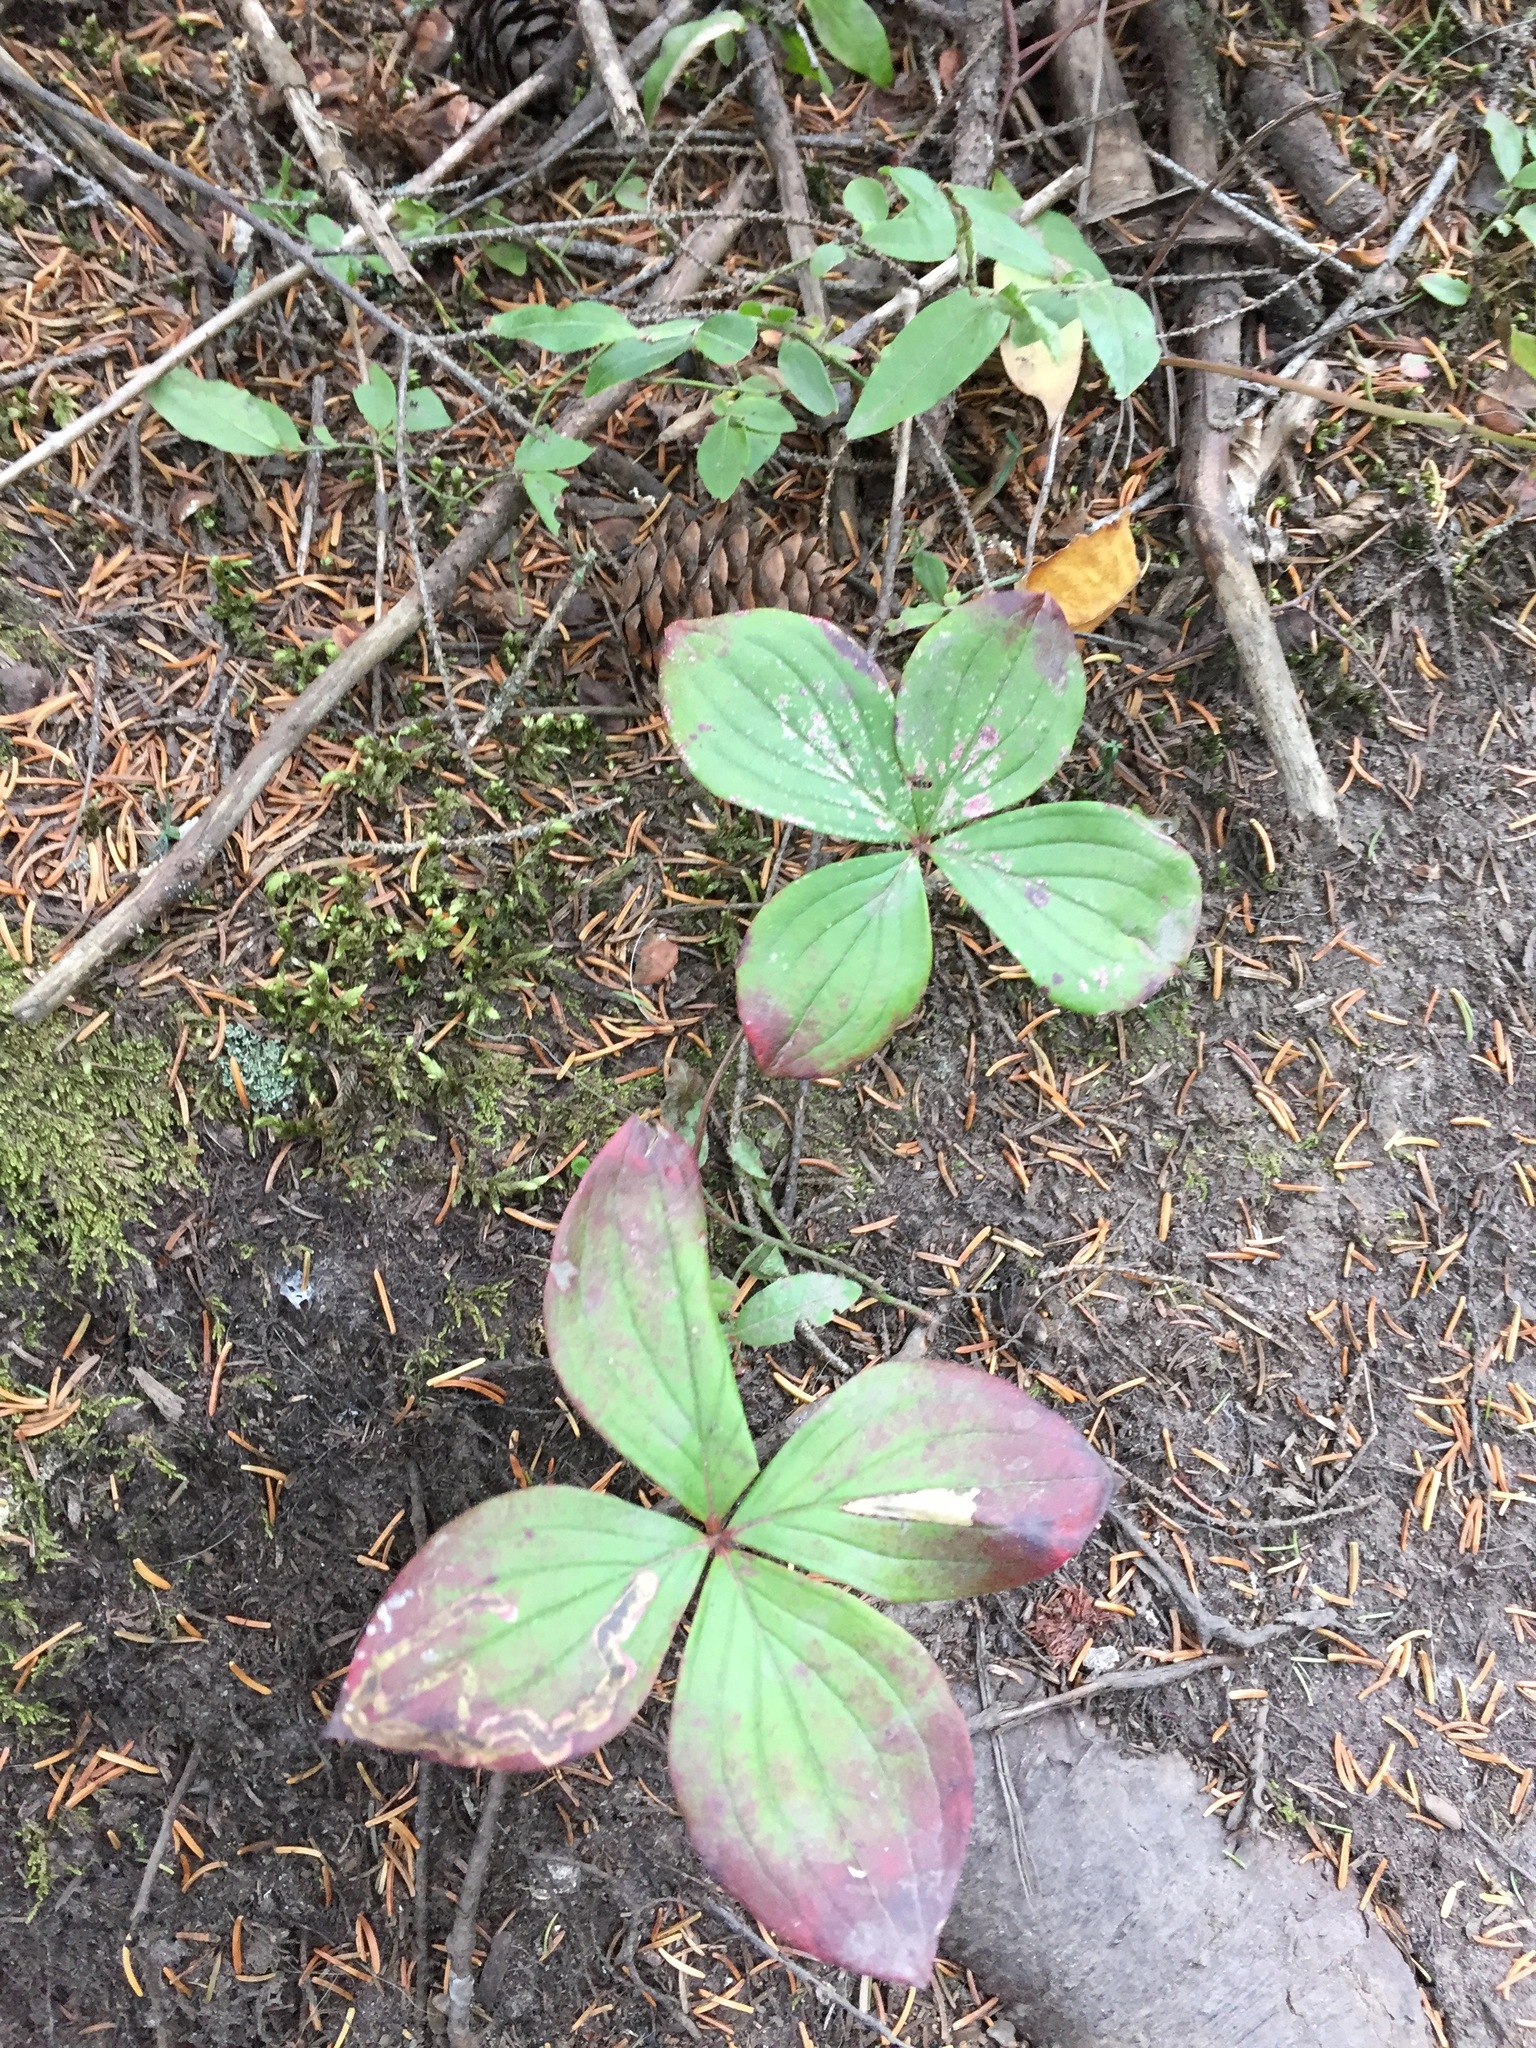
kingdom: Plantae
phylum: Tracheophyta
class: Magnoliopsida
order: Cornales
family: Cornaceae
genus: Cornus
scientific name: Cornus canadensis
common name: Creeping dogwood
